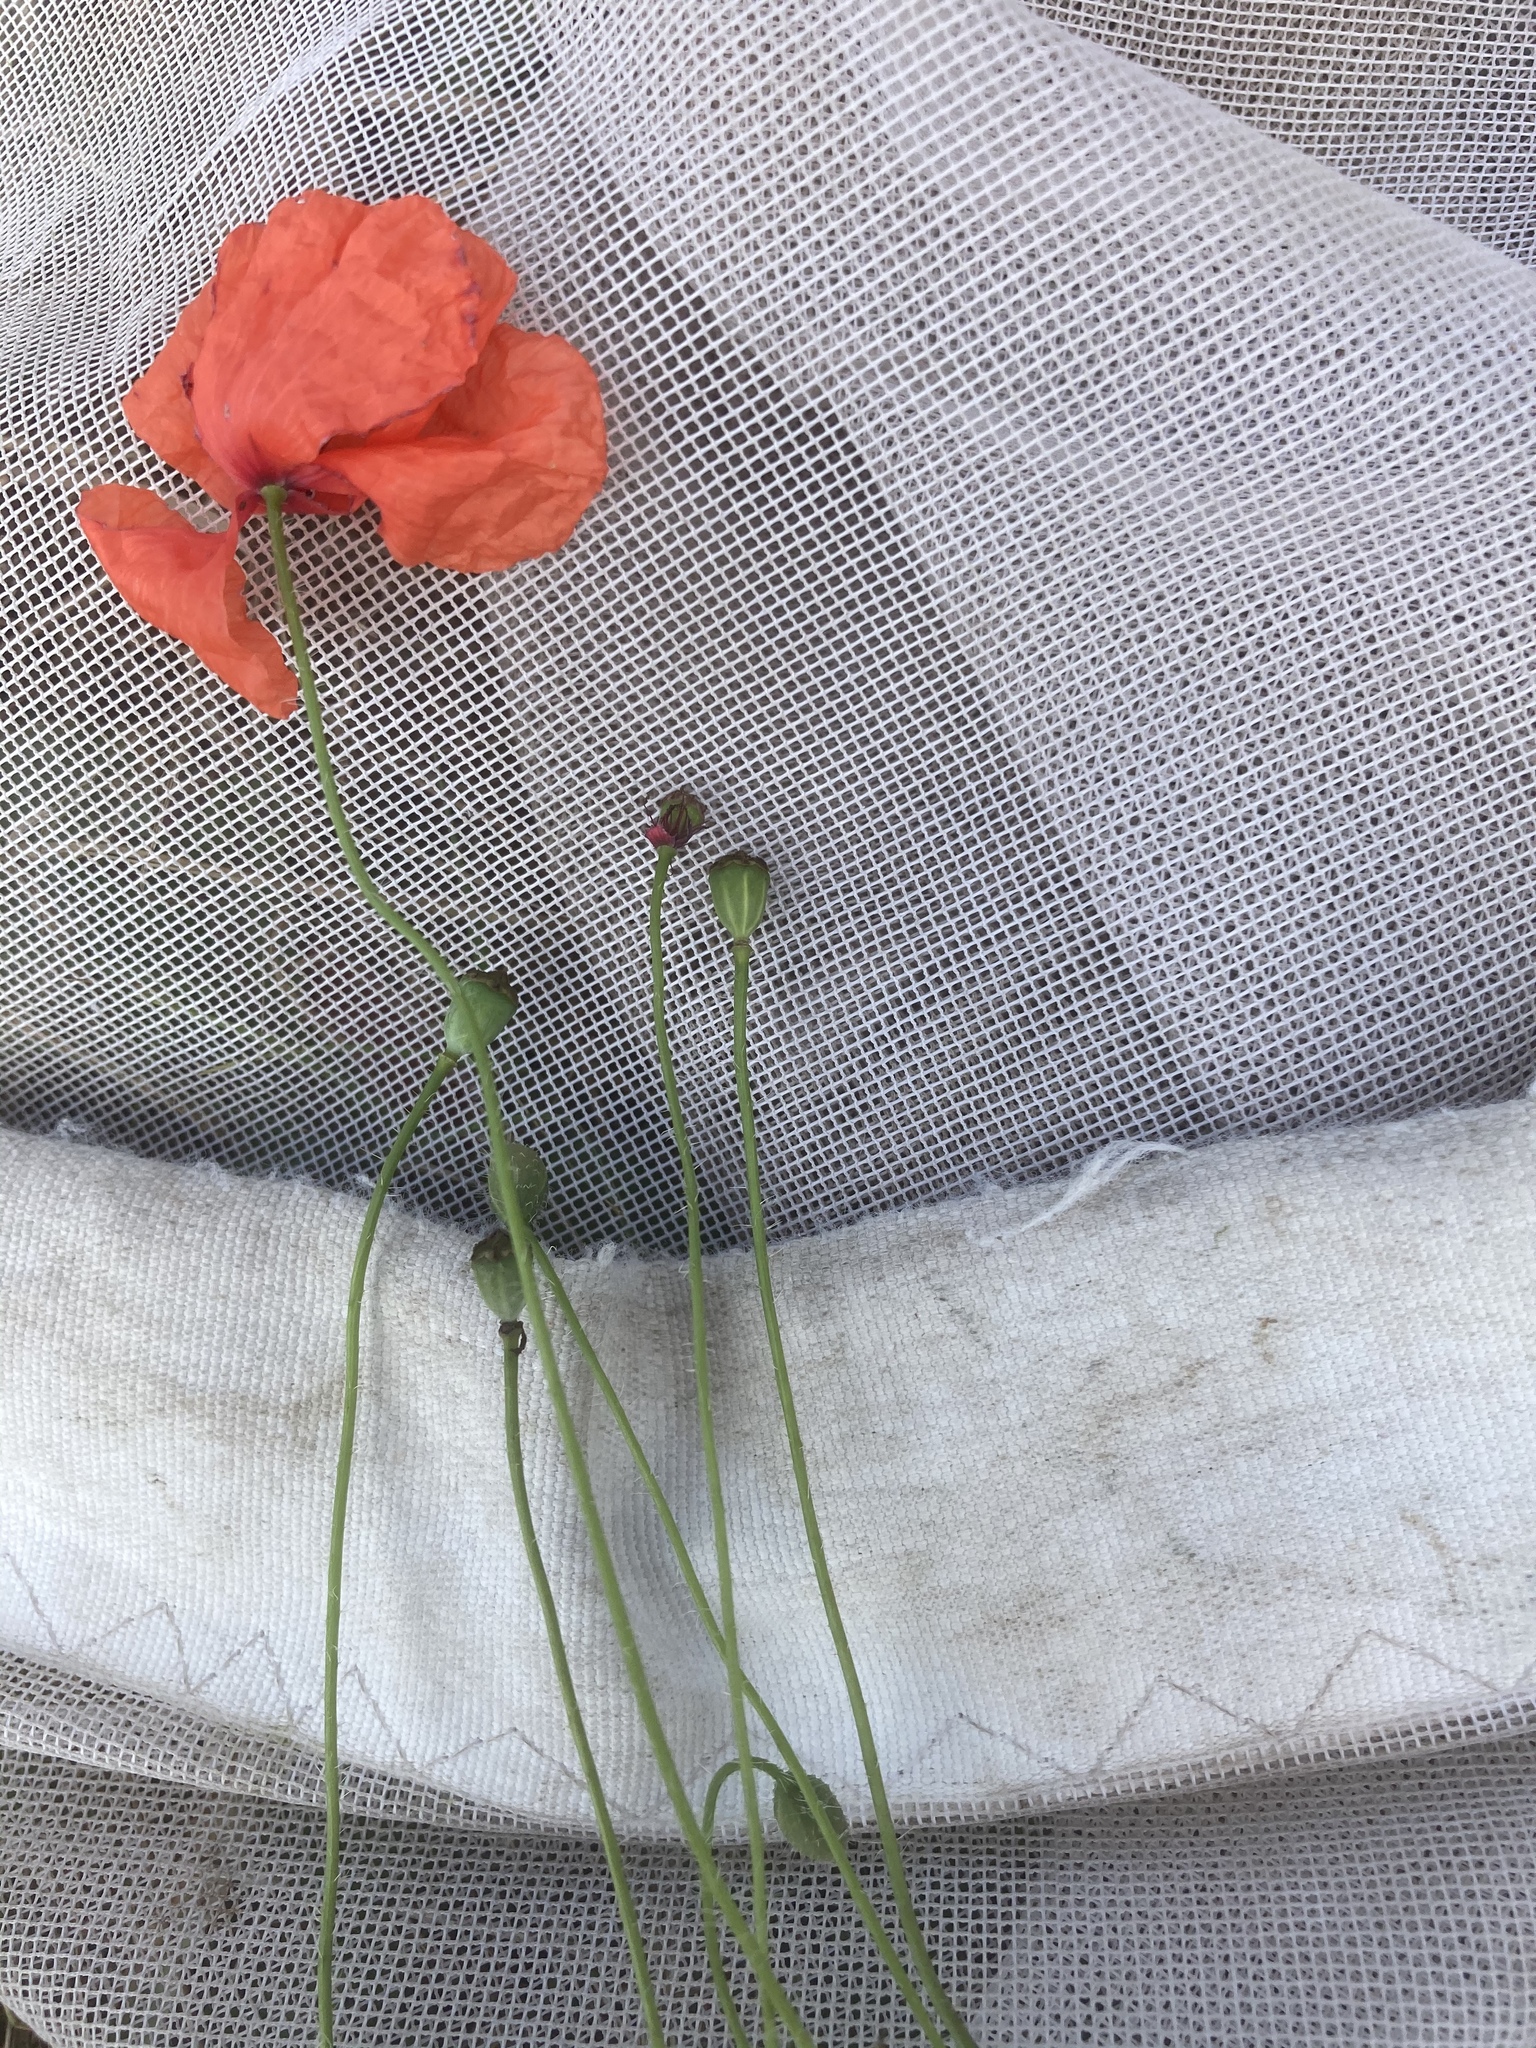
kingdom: Plantae
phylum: Tracheophyta
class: Magnoliopsida
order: Ranunculales
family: Papaveraceae
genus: Papaver
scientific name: Papaver rhoeas
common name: Corn poppy
